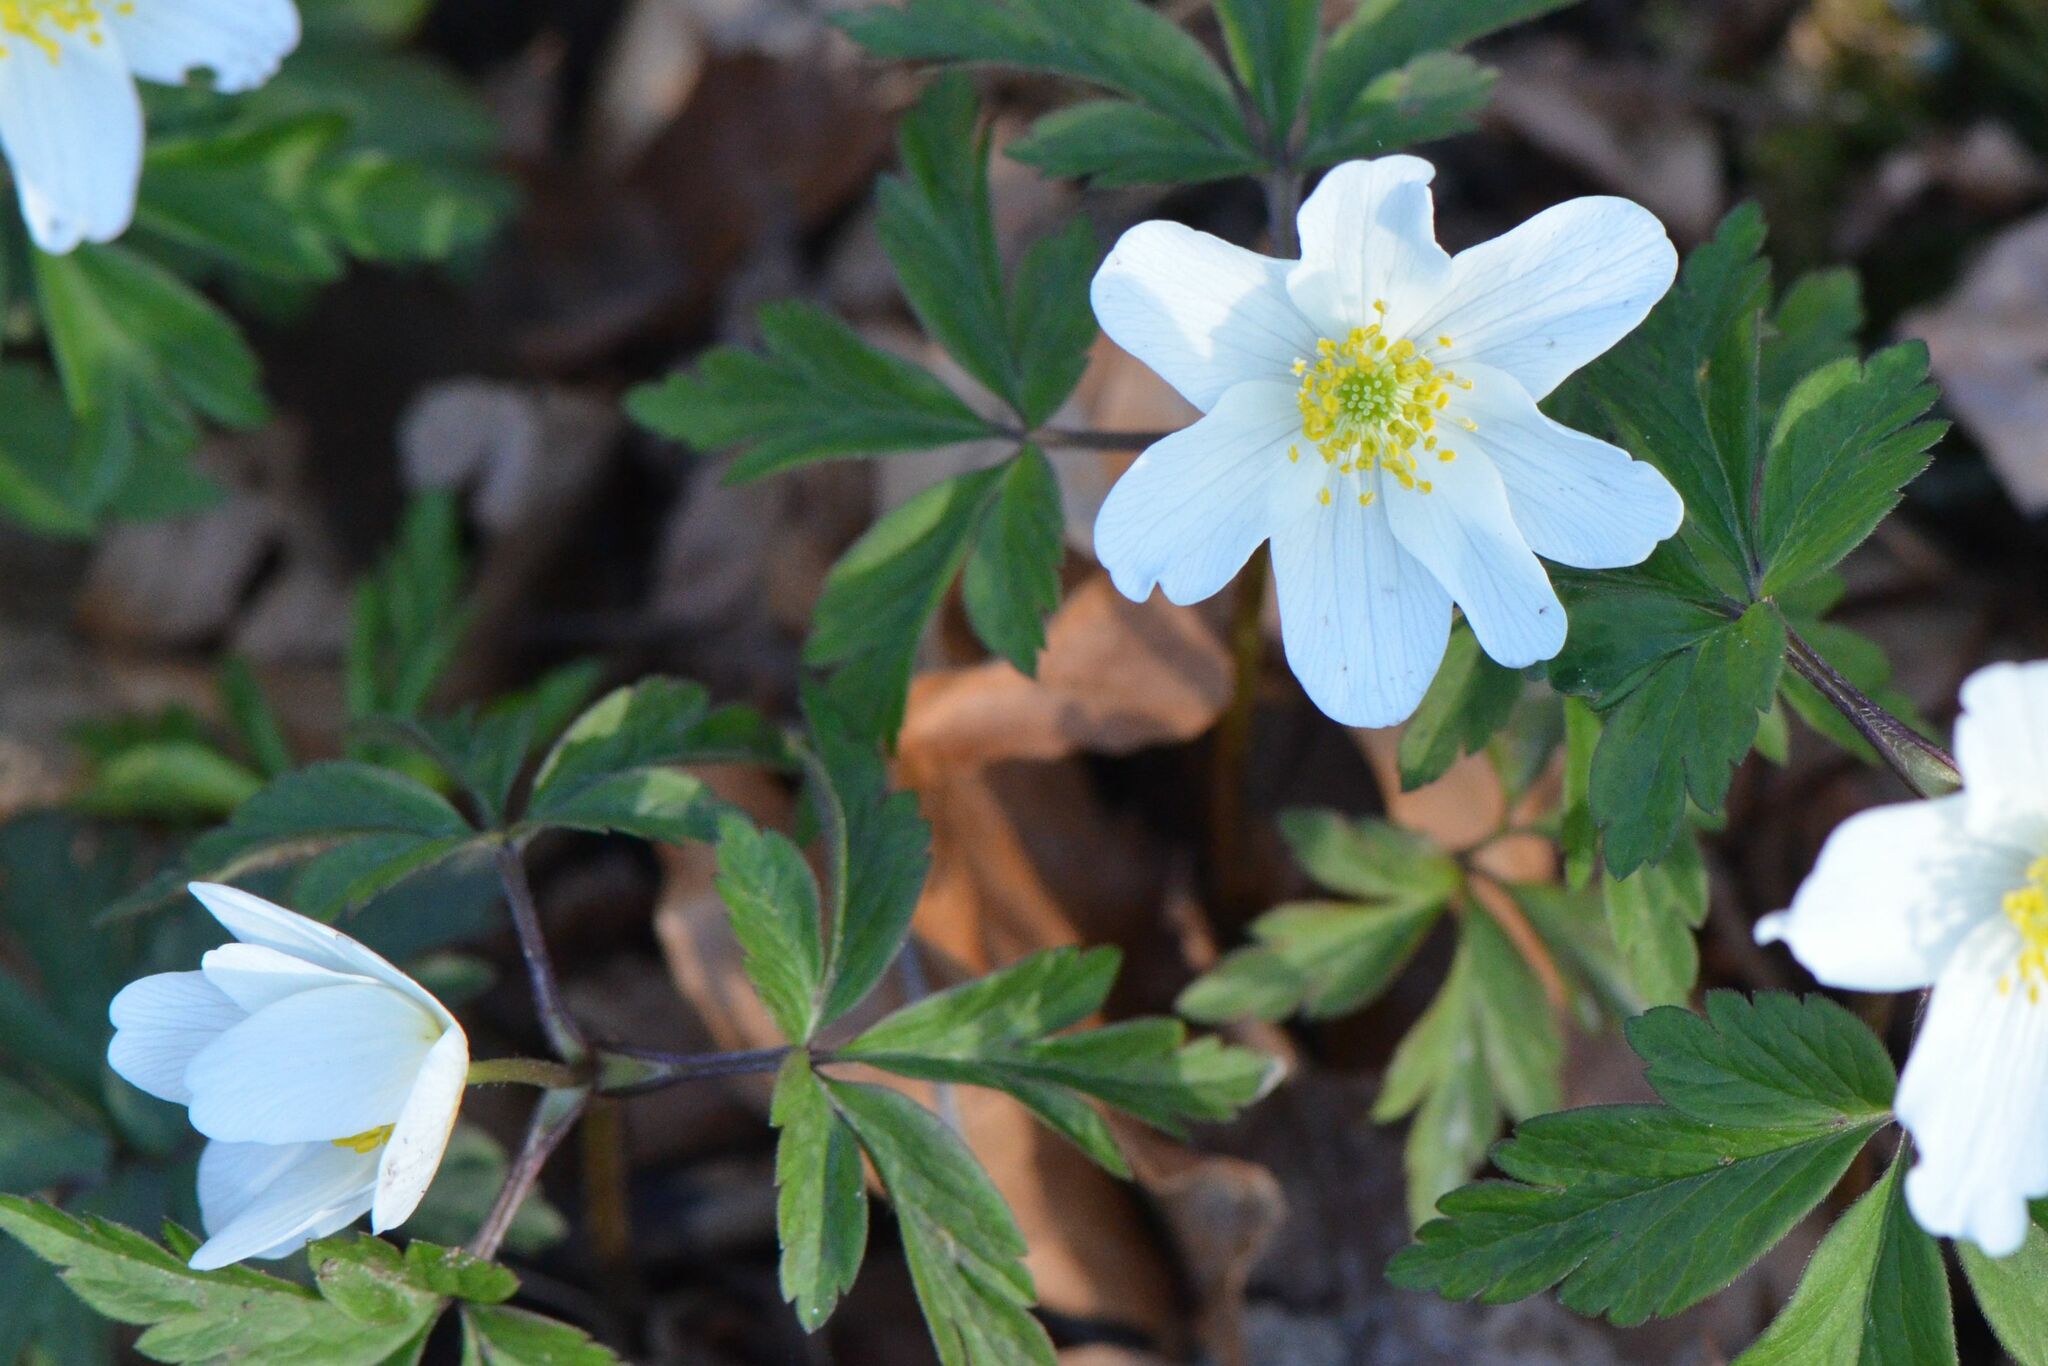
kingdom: Plantae
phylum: Tracheophyta
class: Magnoliopsida
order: Ranunculales
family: Ranunculaceae
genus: Anemone
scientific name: Anemone nemorosa
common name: Wood anemone
